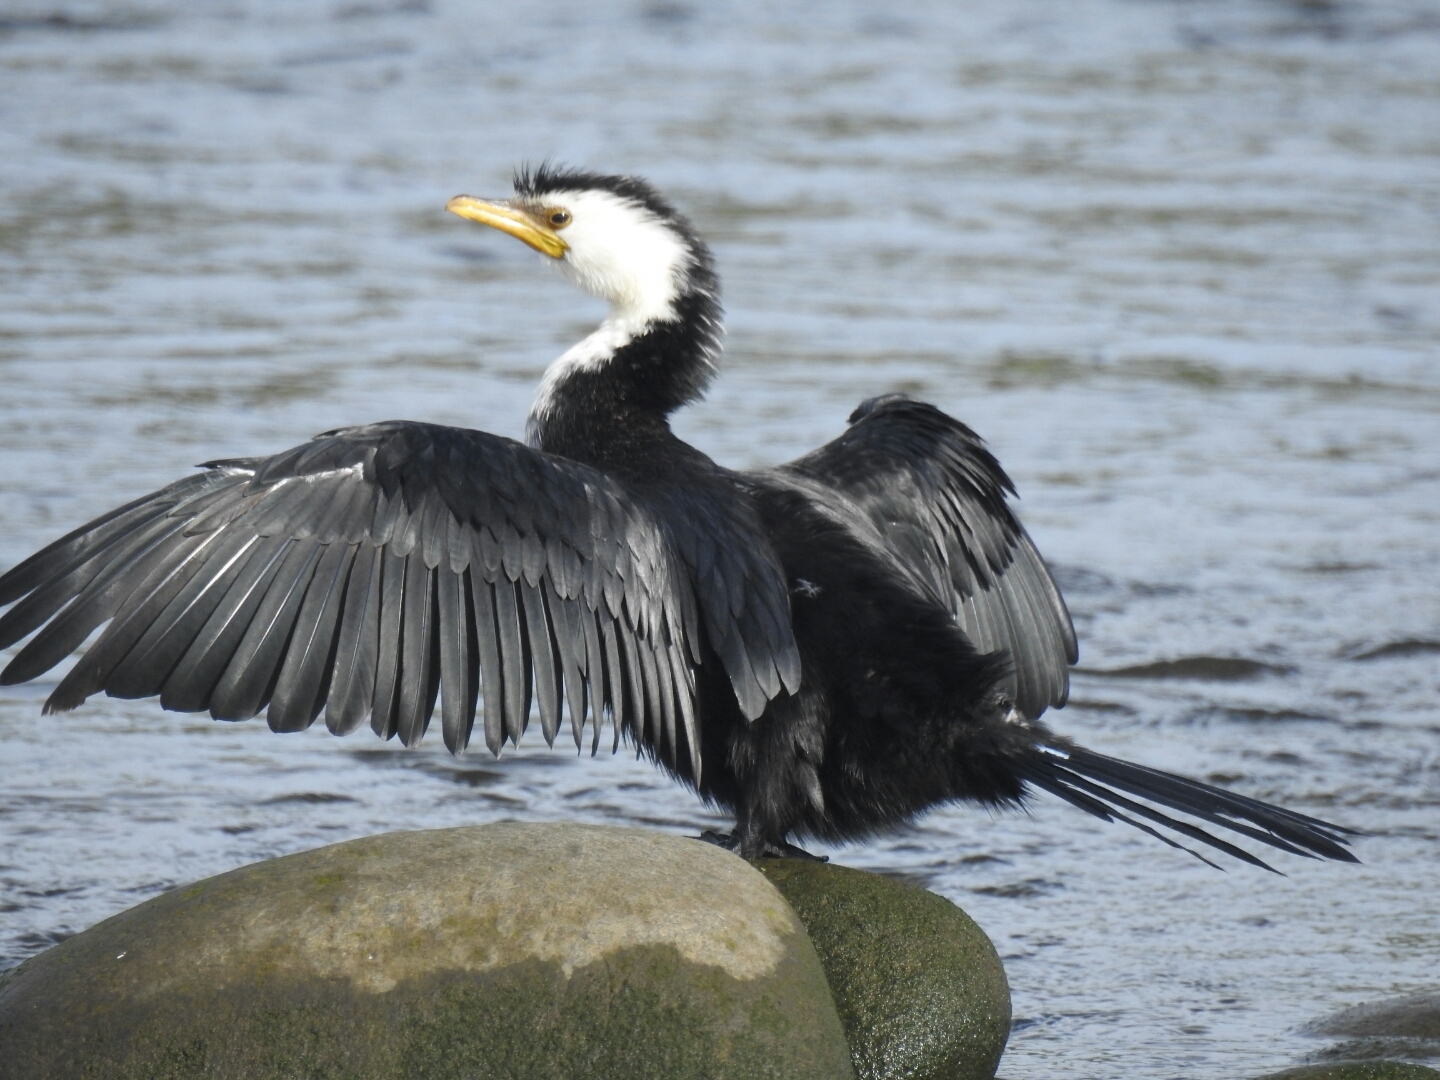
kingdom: Animalia
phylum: Chordata
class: Aves
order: Suliformes
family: Phalacrocoracidae
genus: Microcarbo
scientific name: Microcarbo melanoleucos
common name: Little pied cormorant
